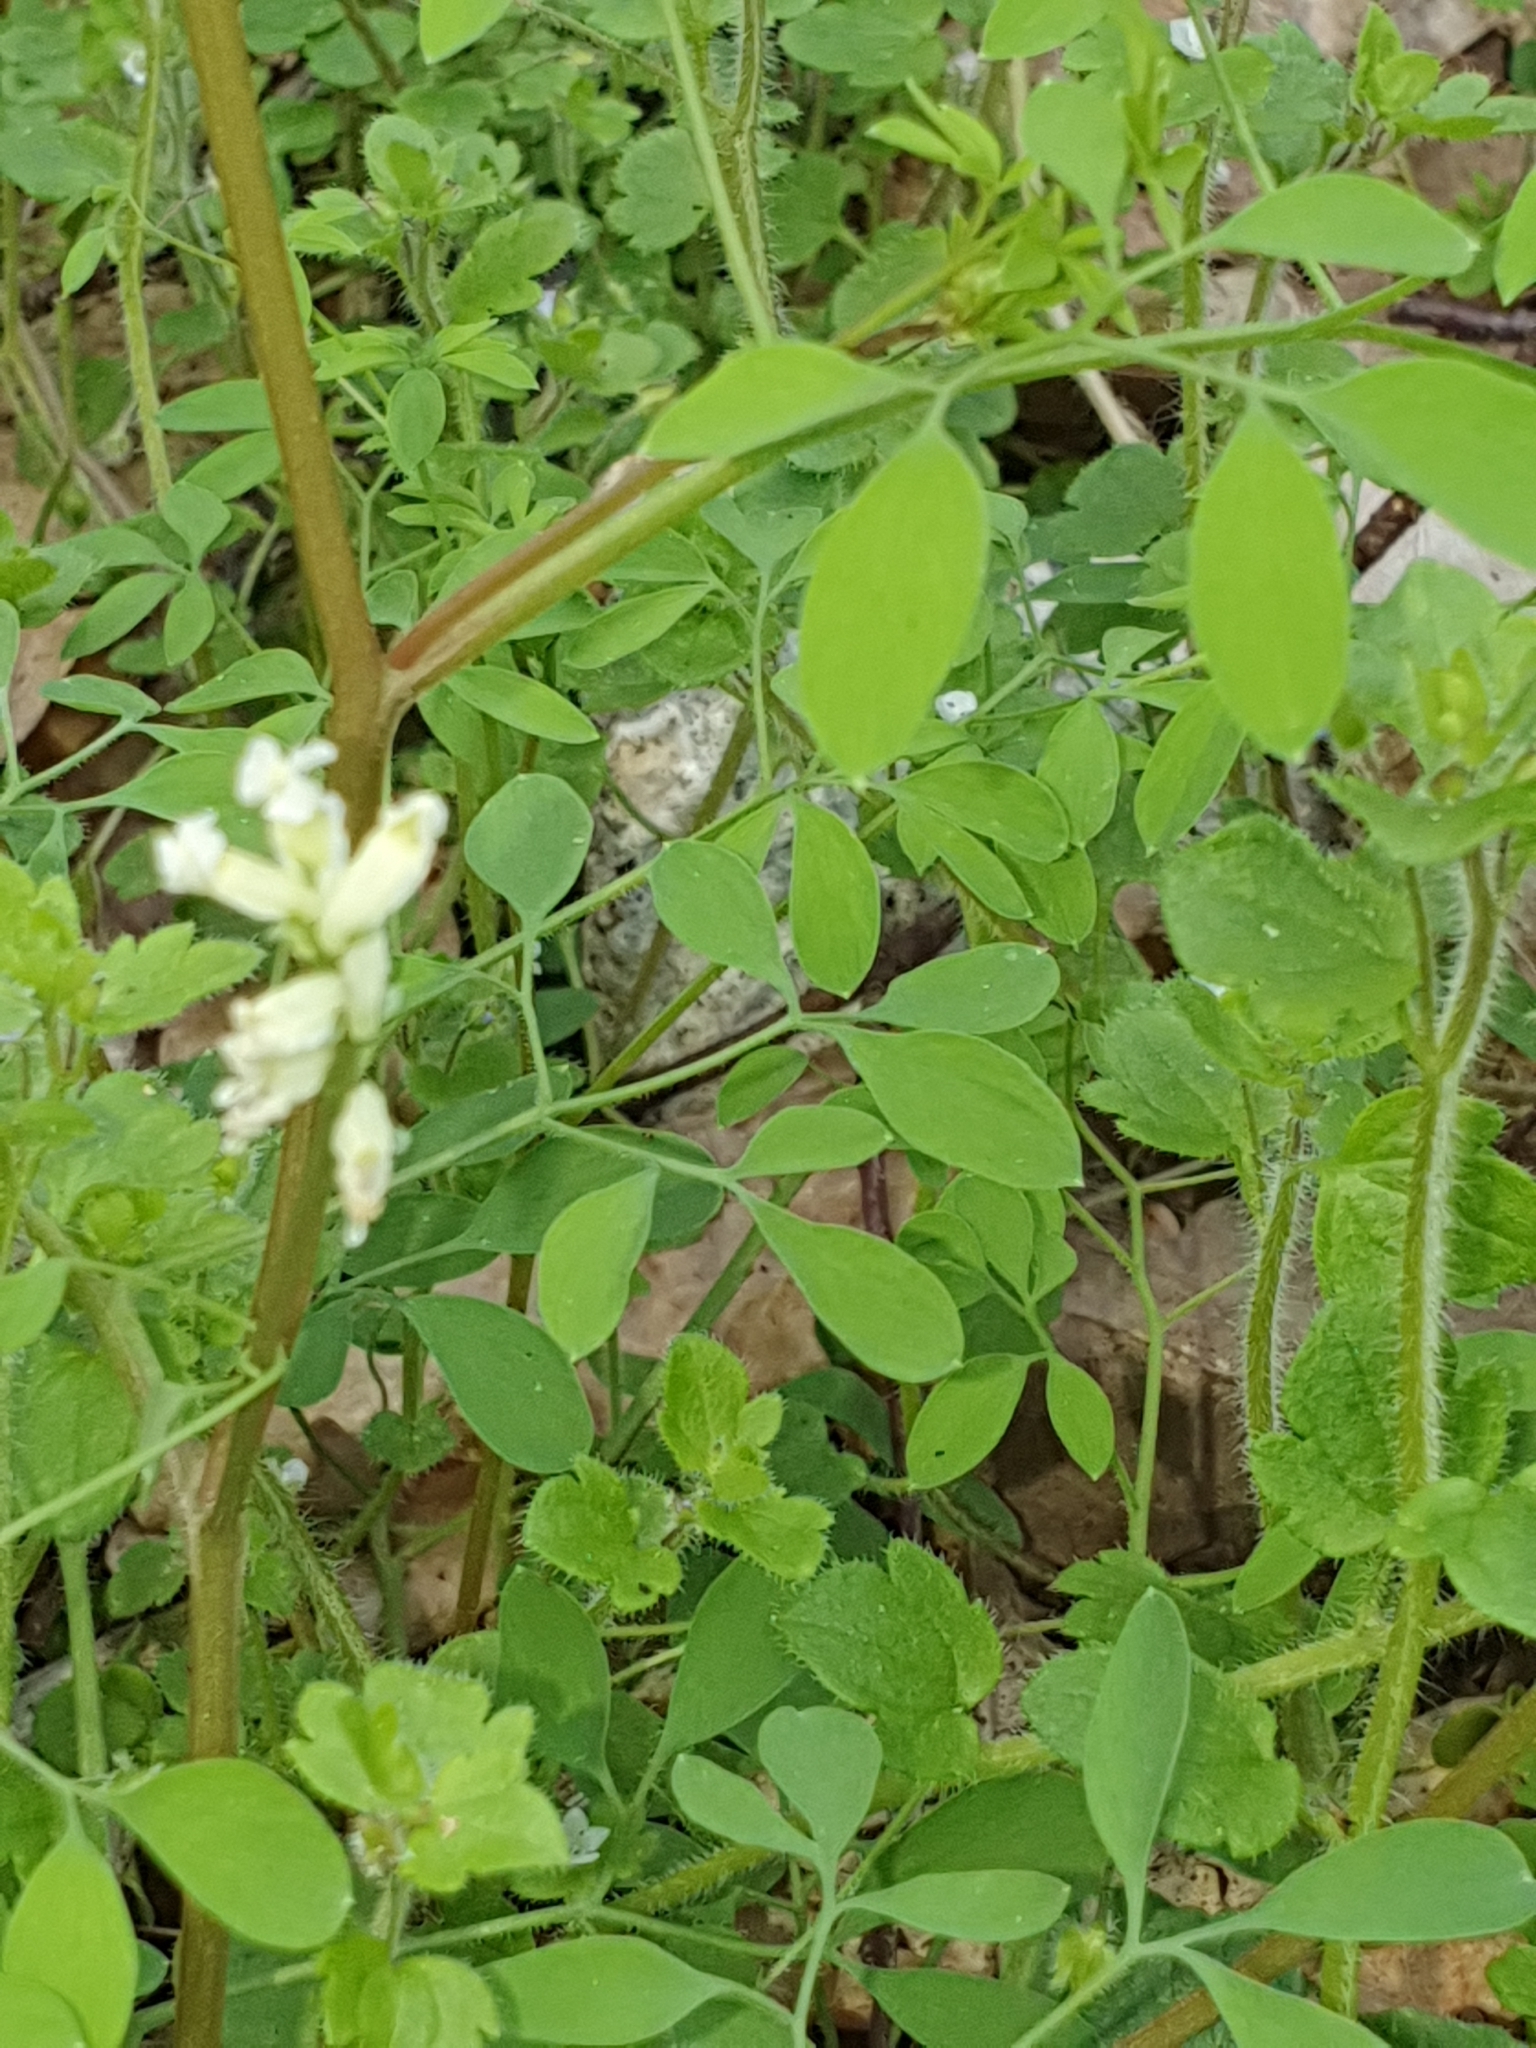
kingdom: Plantae
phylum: Tracheophyta
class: Magnoliopsida
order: Ranunculales
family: Papaveraceae
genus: Ceratocapnos
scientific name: Ceratocapnos claviculata
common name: Climbing corydalis
